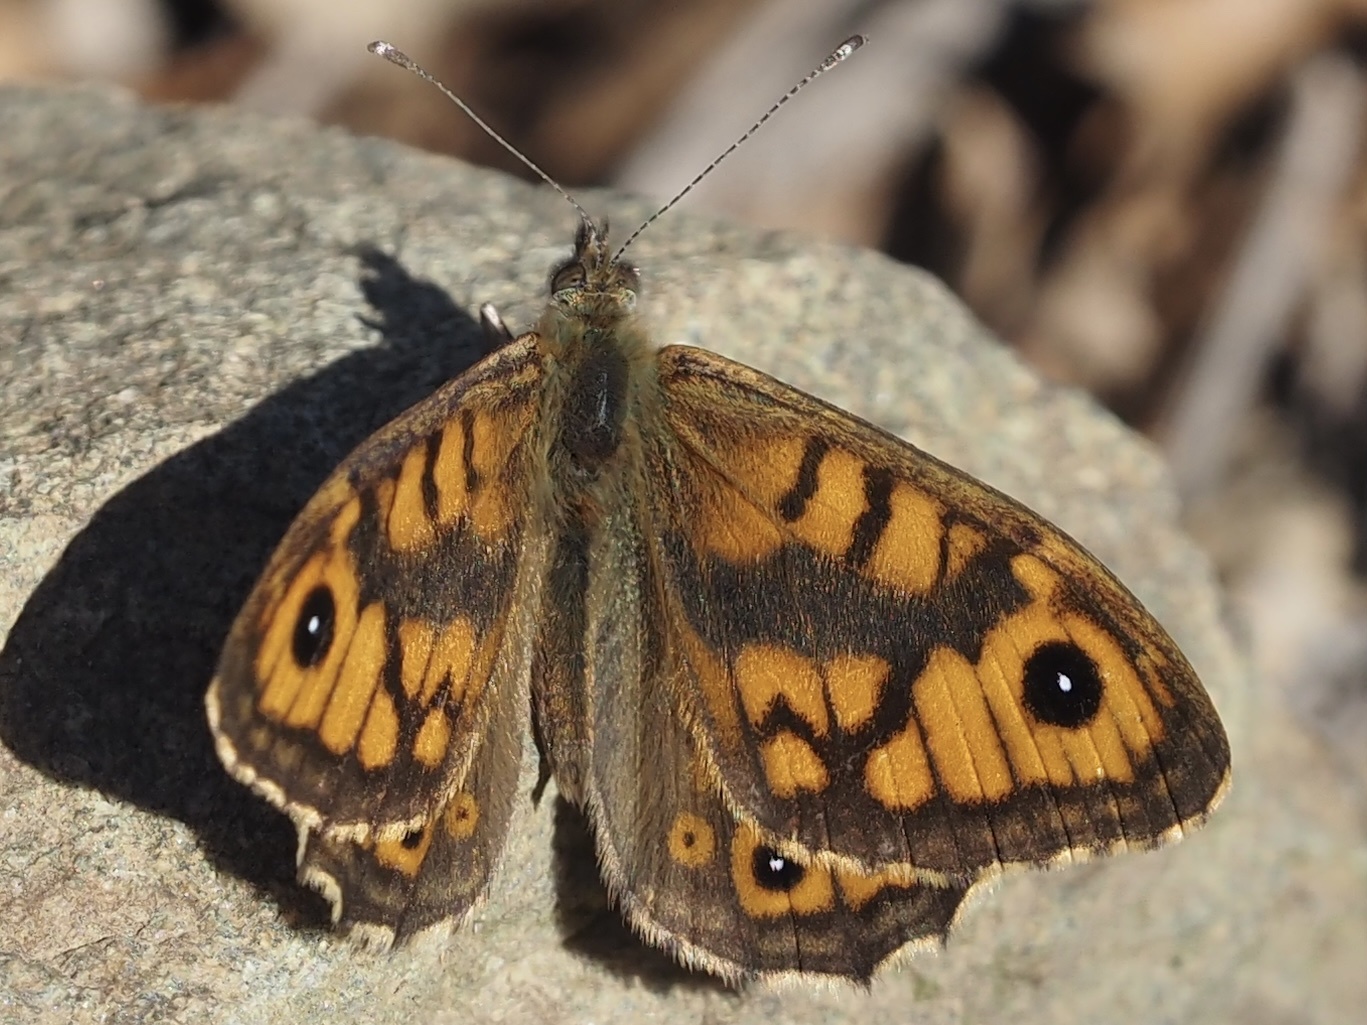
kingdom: Animalia
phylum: Arthropoda
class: Insecta
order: Lepidoptera
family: Nymphalidae
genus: Pararge
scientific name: Pararge Lasiommata megera
